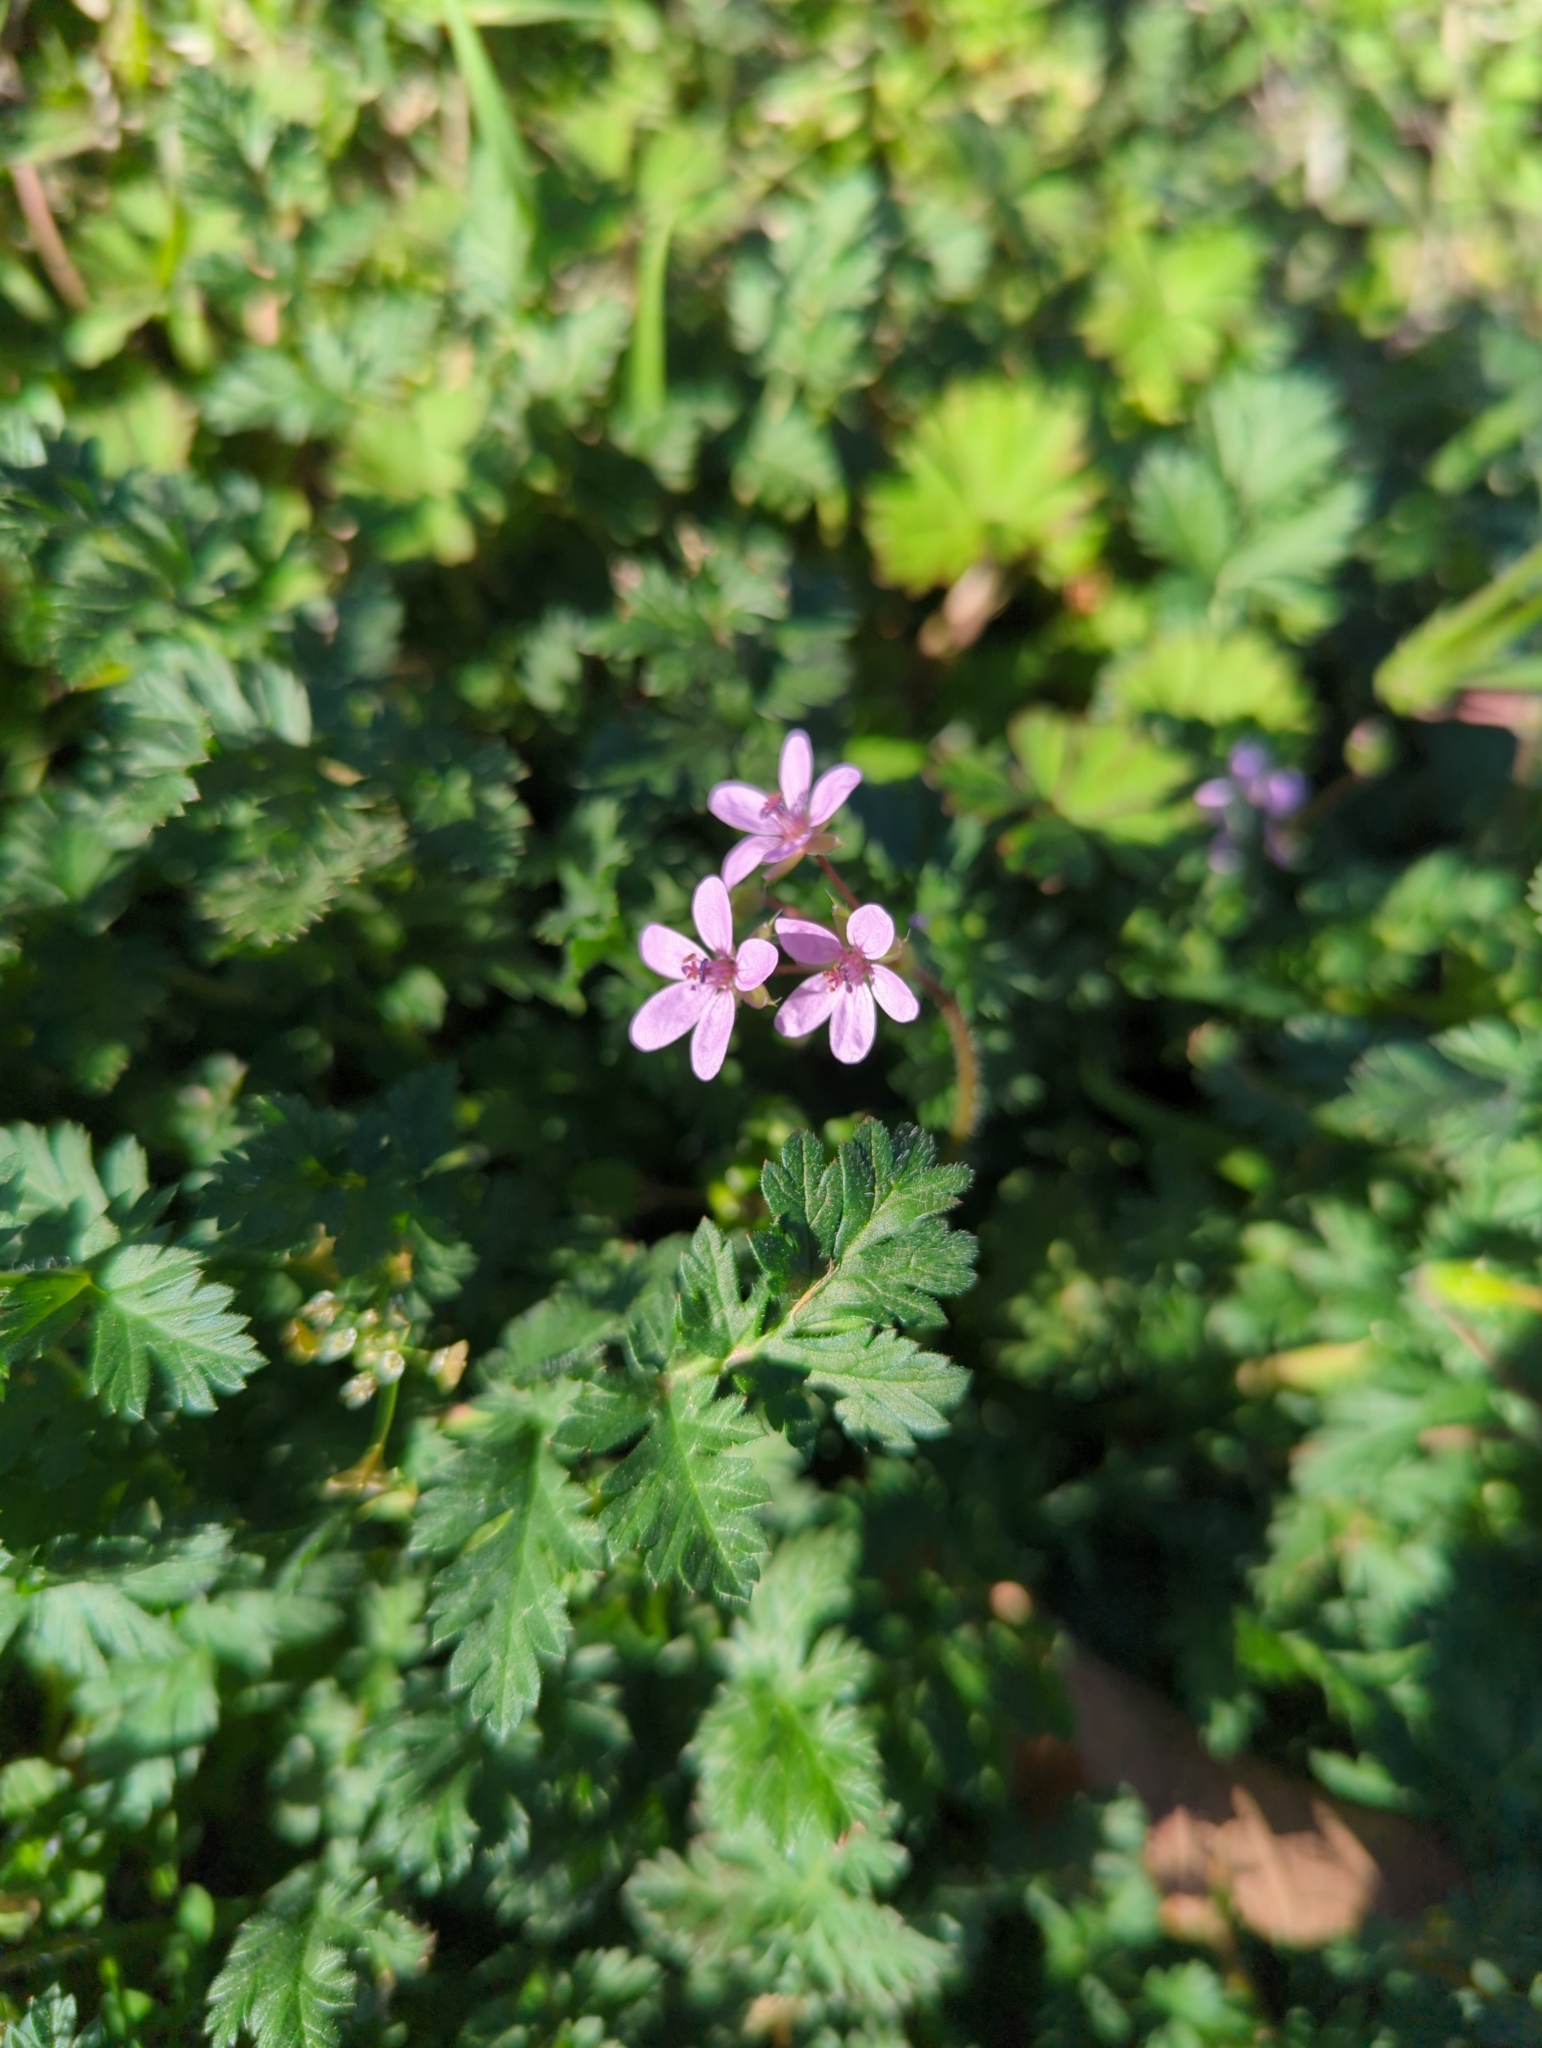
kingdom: Plantae
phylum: Tracheophyta
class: Magnoliopsida
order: Geraniales
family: Geraniaceae
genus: Erodium
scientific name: Erodium cicutarium
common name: Common stork's-bill
